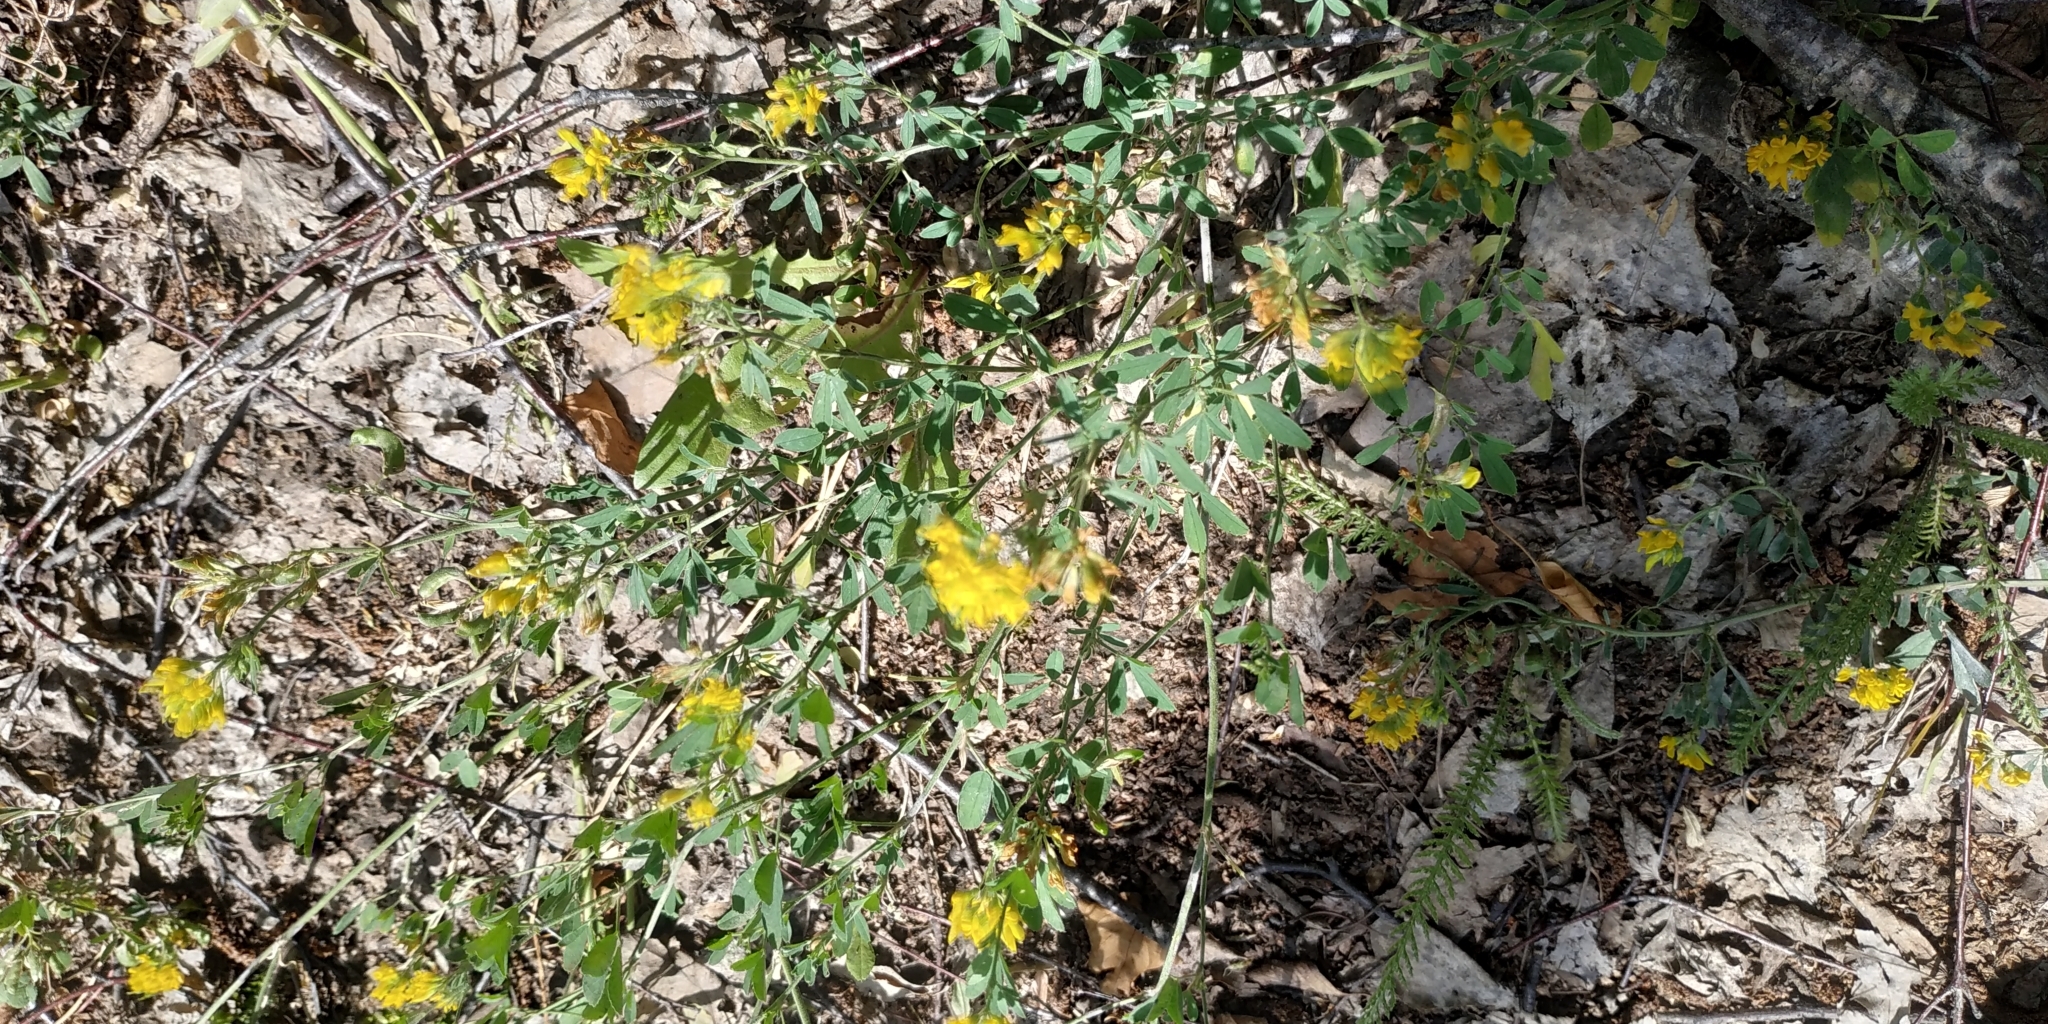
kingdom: Plantae
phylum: Tracheophyta
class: Magnoliopsida
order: Fabales
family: Fabaceae
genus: Medicago
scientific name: Medicago falcata
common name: Sickle medick
